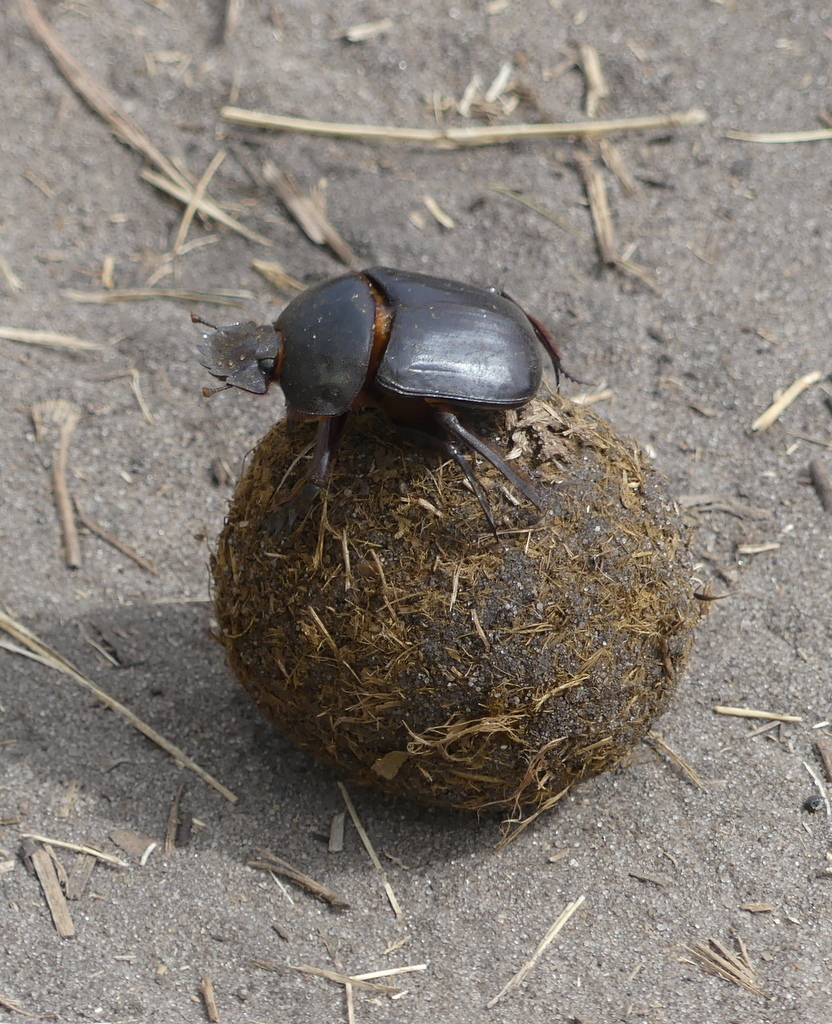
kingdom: Animalia
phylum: Arthropoda
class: Insecta
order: Coleoptera
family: Scarabaeidae
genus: Scarabaeus
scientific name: Scarabaeus goryi
